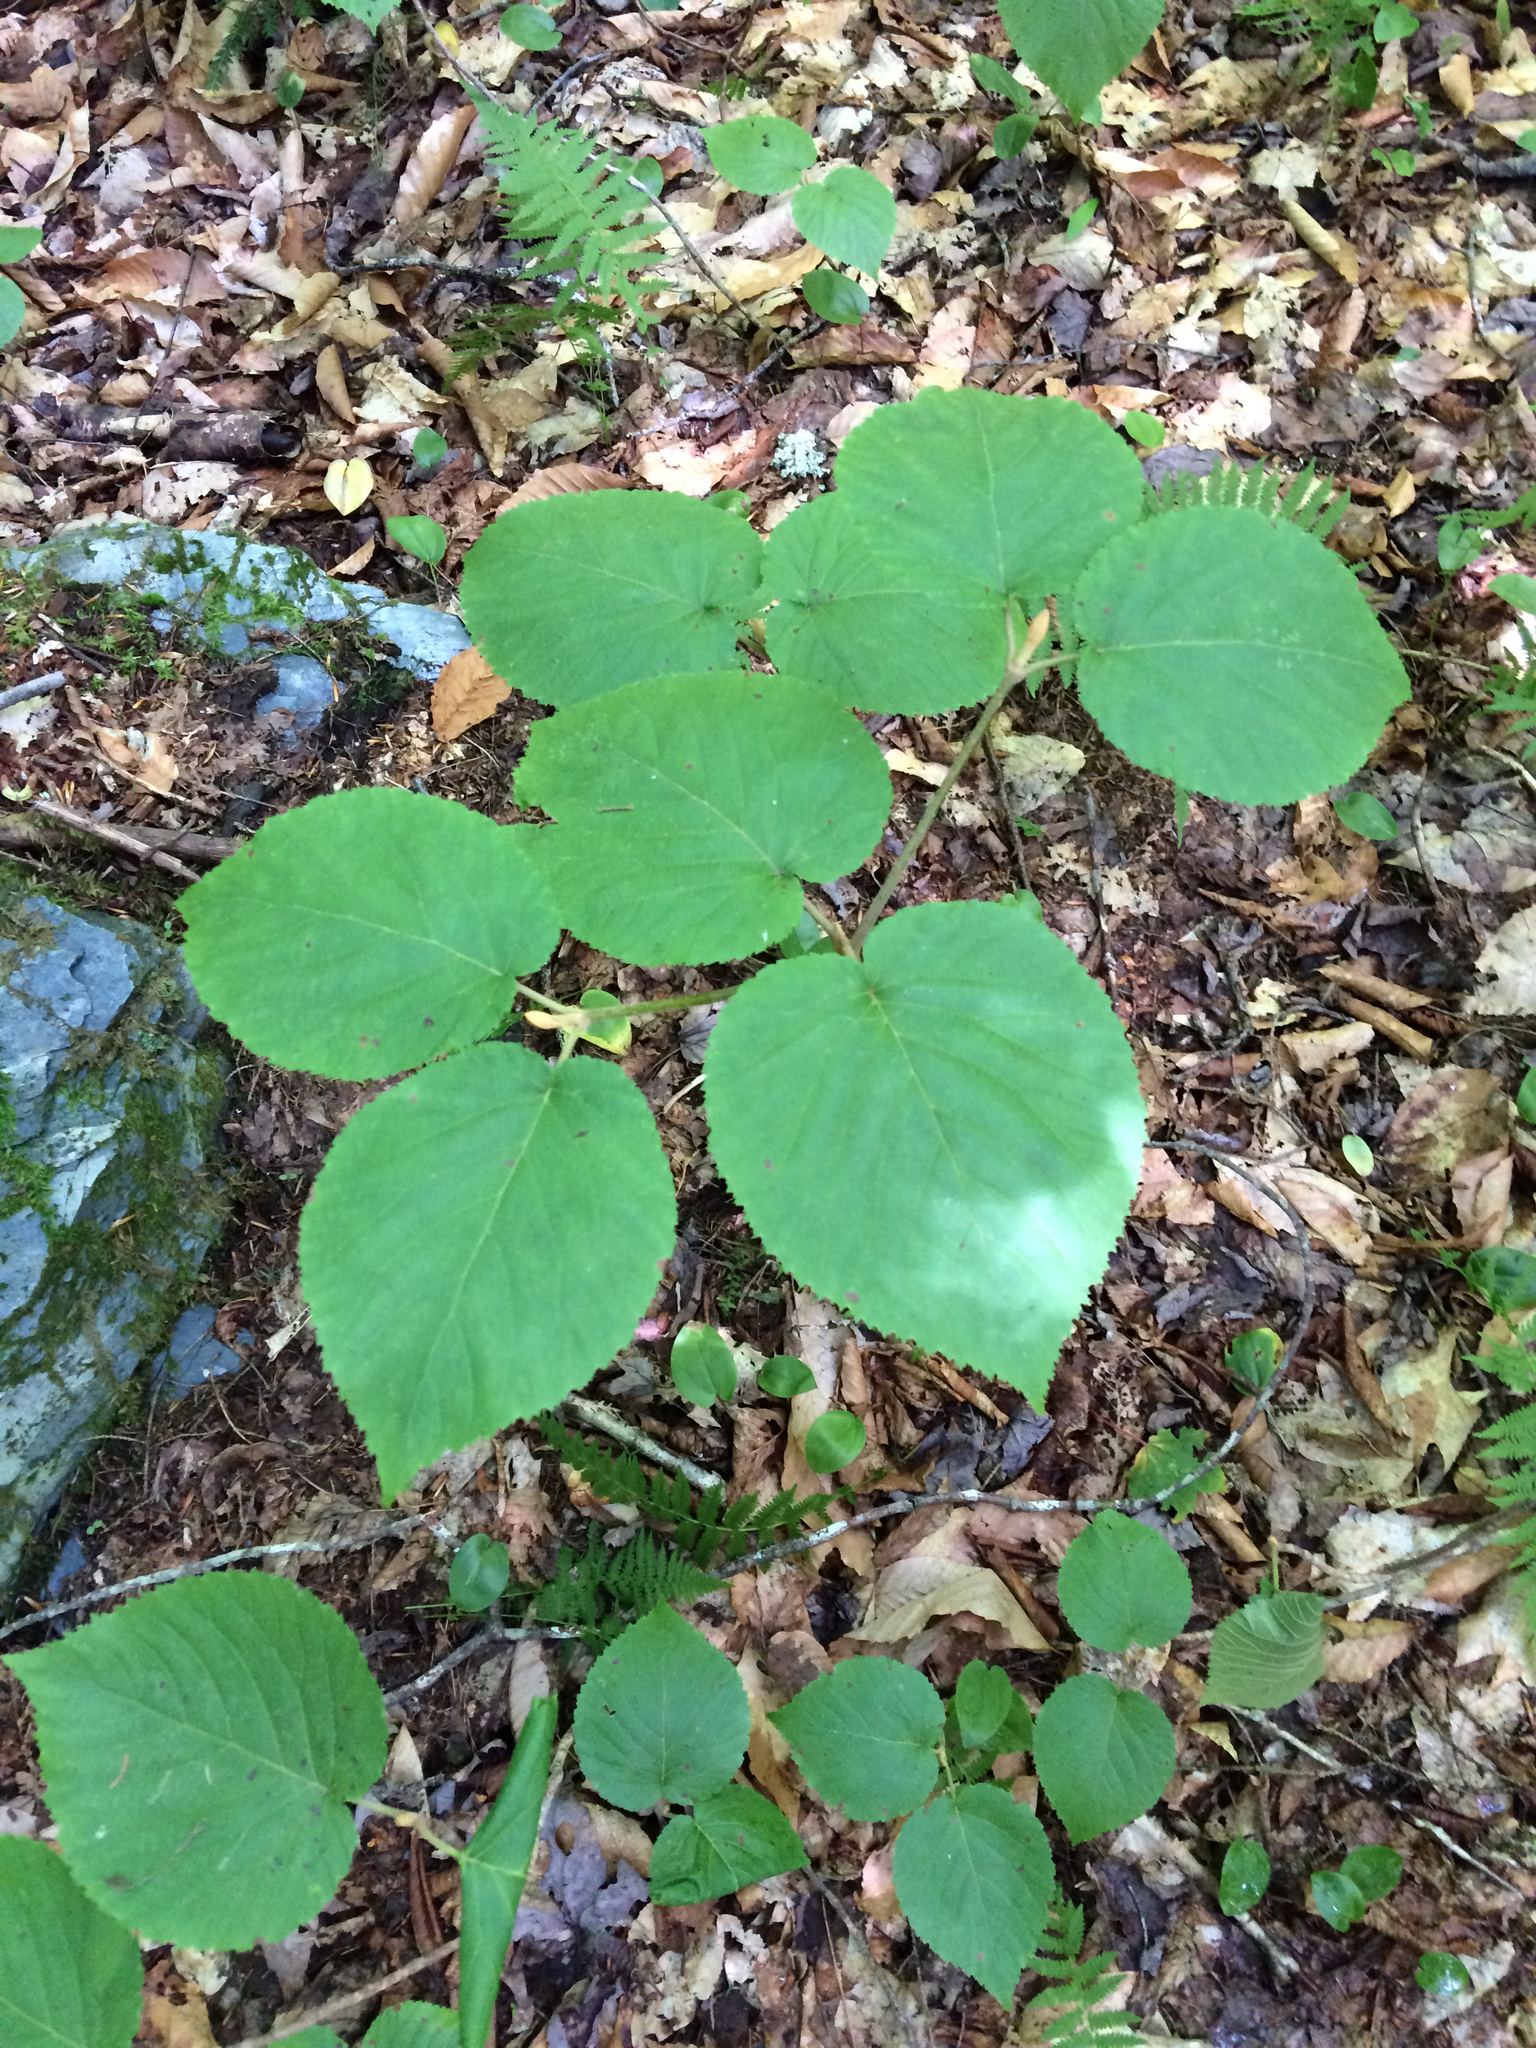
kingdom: Plantae
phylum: Tracheophyta
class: Magnoliopsida
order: Dipsacales
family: Viburnaceae
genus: Viburnum
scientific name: Viburnum lantanoides
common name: Hobblebush
